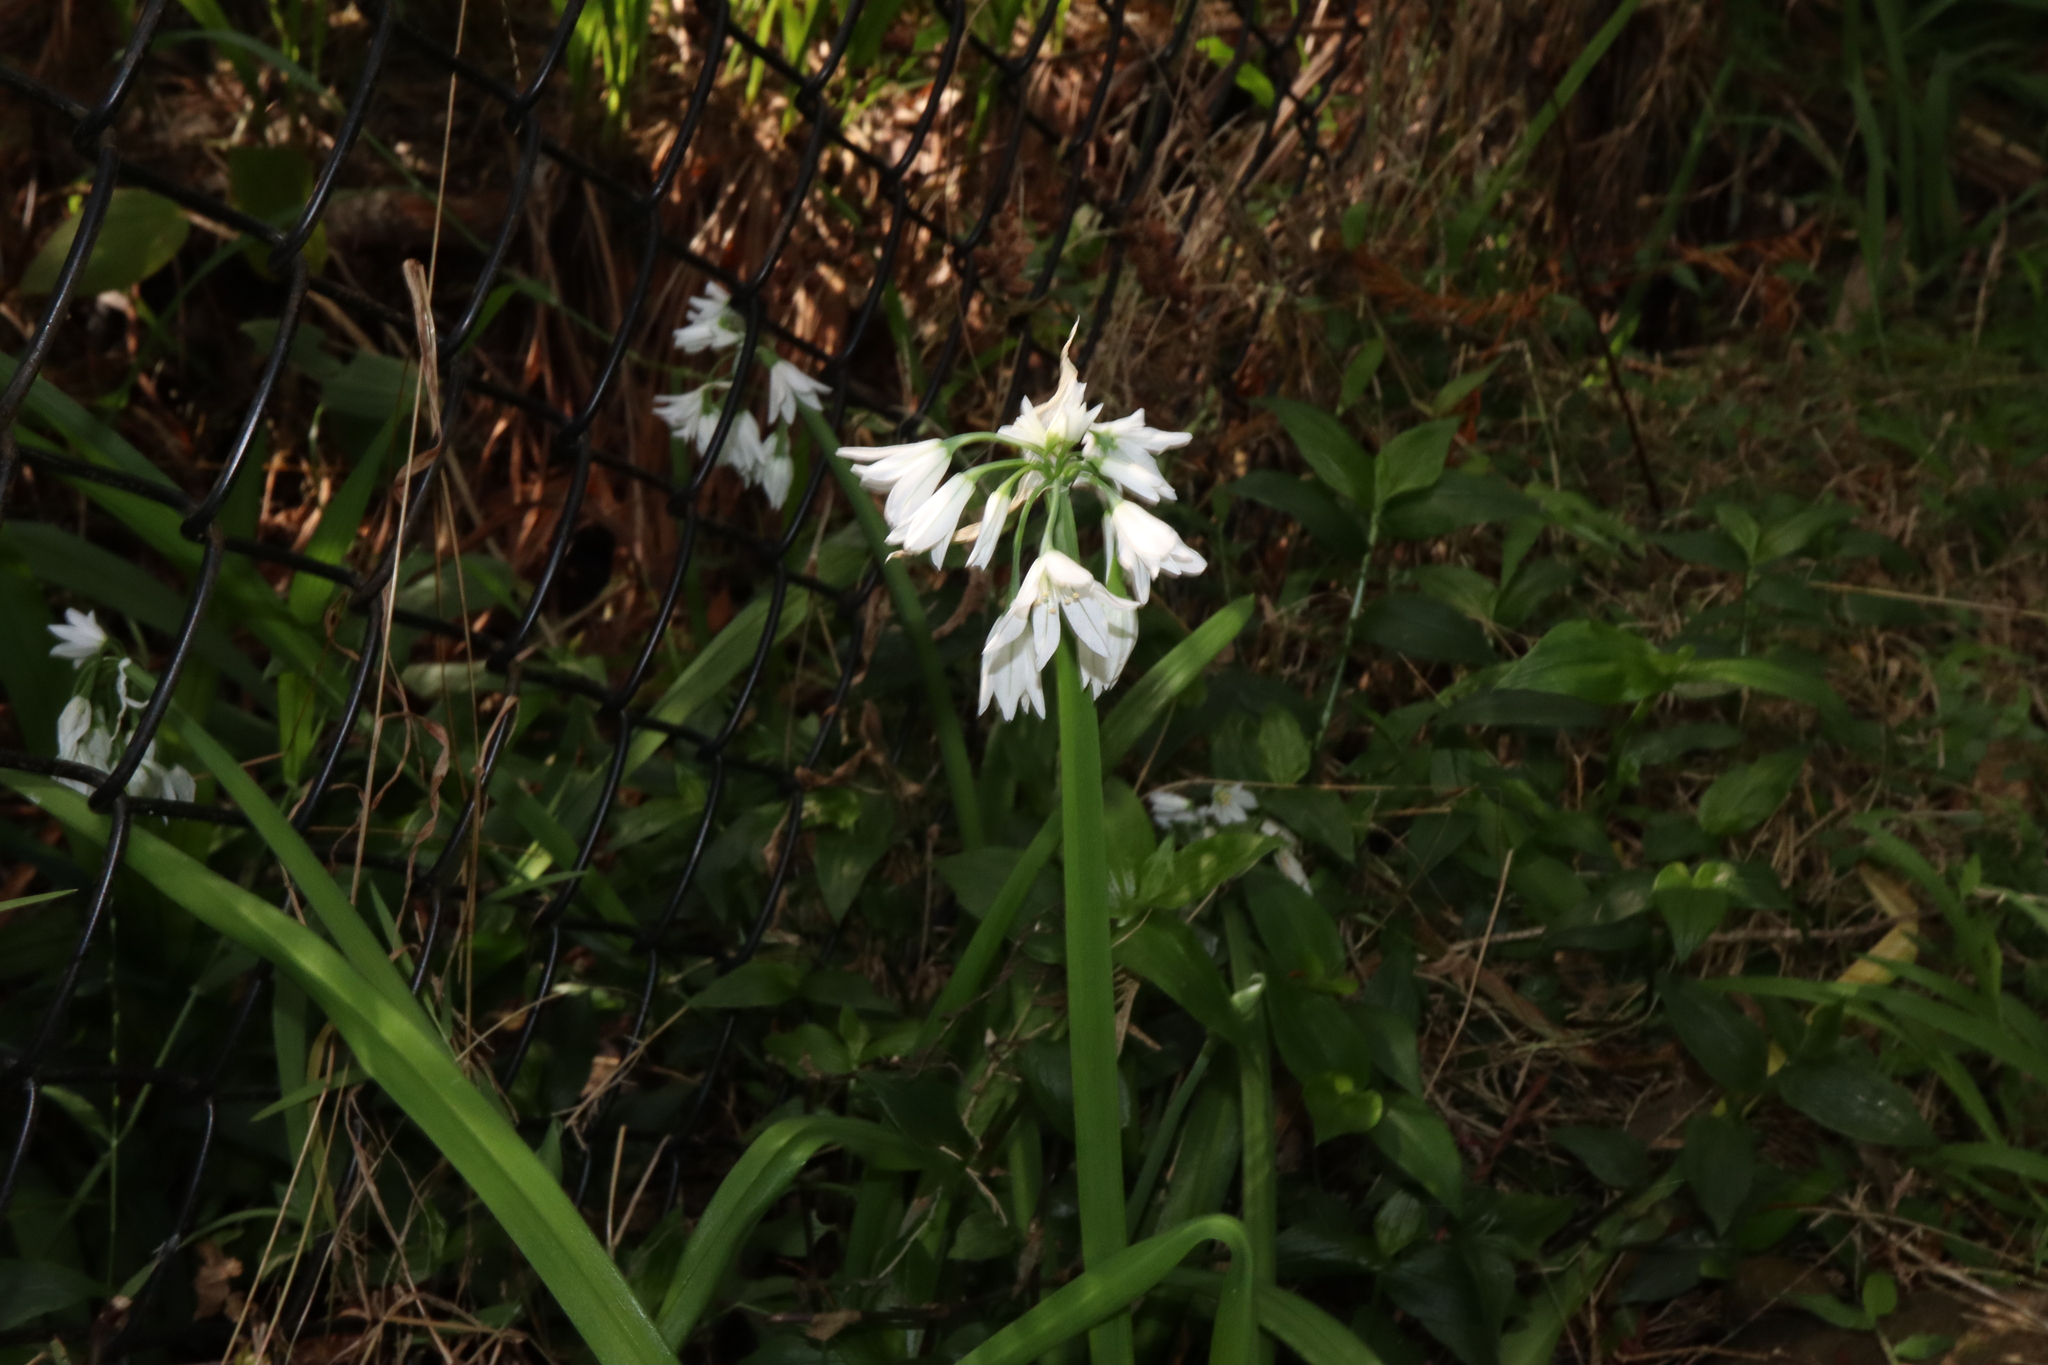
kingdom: Plantae
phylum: Tracheophyta
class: Liliopsida
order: Asparagales
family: Amaryllidaceae
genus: Allium
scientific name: Allium triquetrum
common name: Three-cornered garlic
